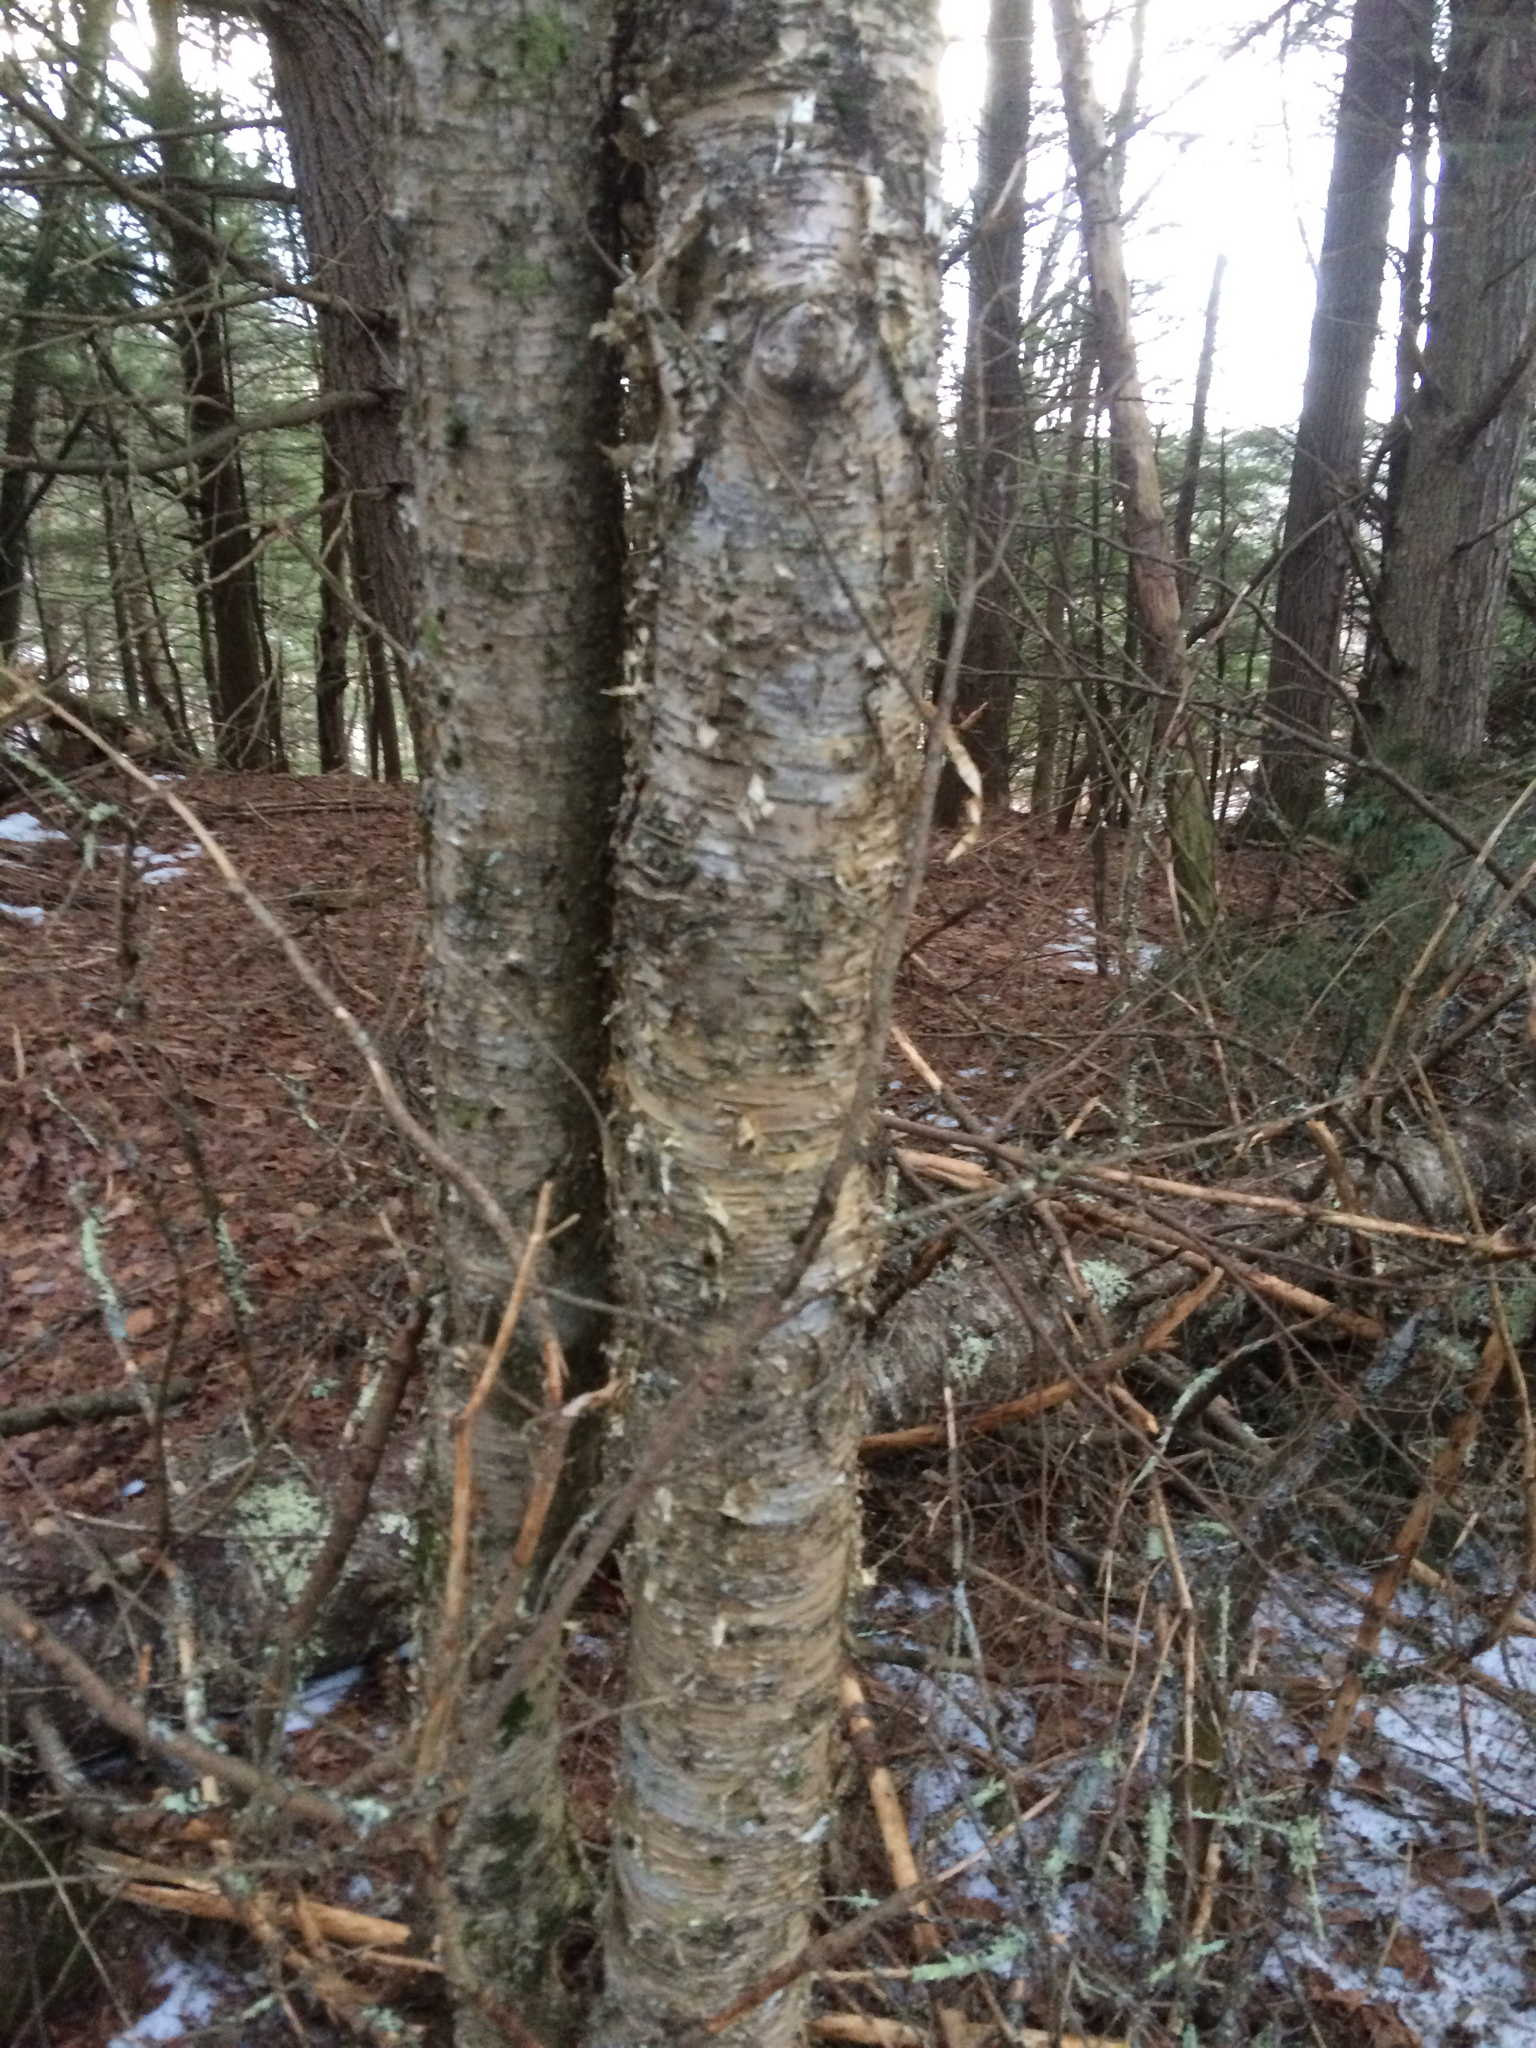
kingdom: Plantae
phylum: Tracheophyta
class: Magnoliopsida
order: Fagales
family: Betulaceae
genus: Betula
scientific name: Betula alleghaniensis
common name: Yellow birch
